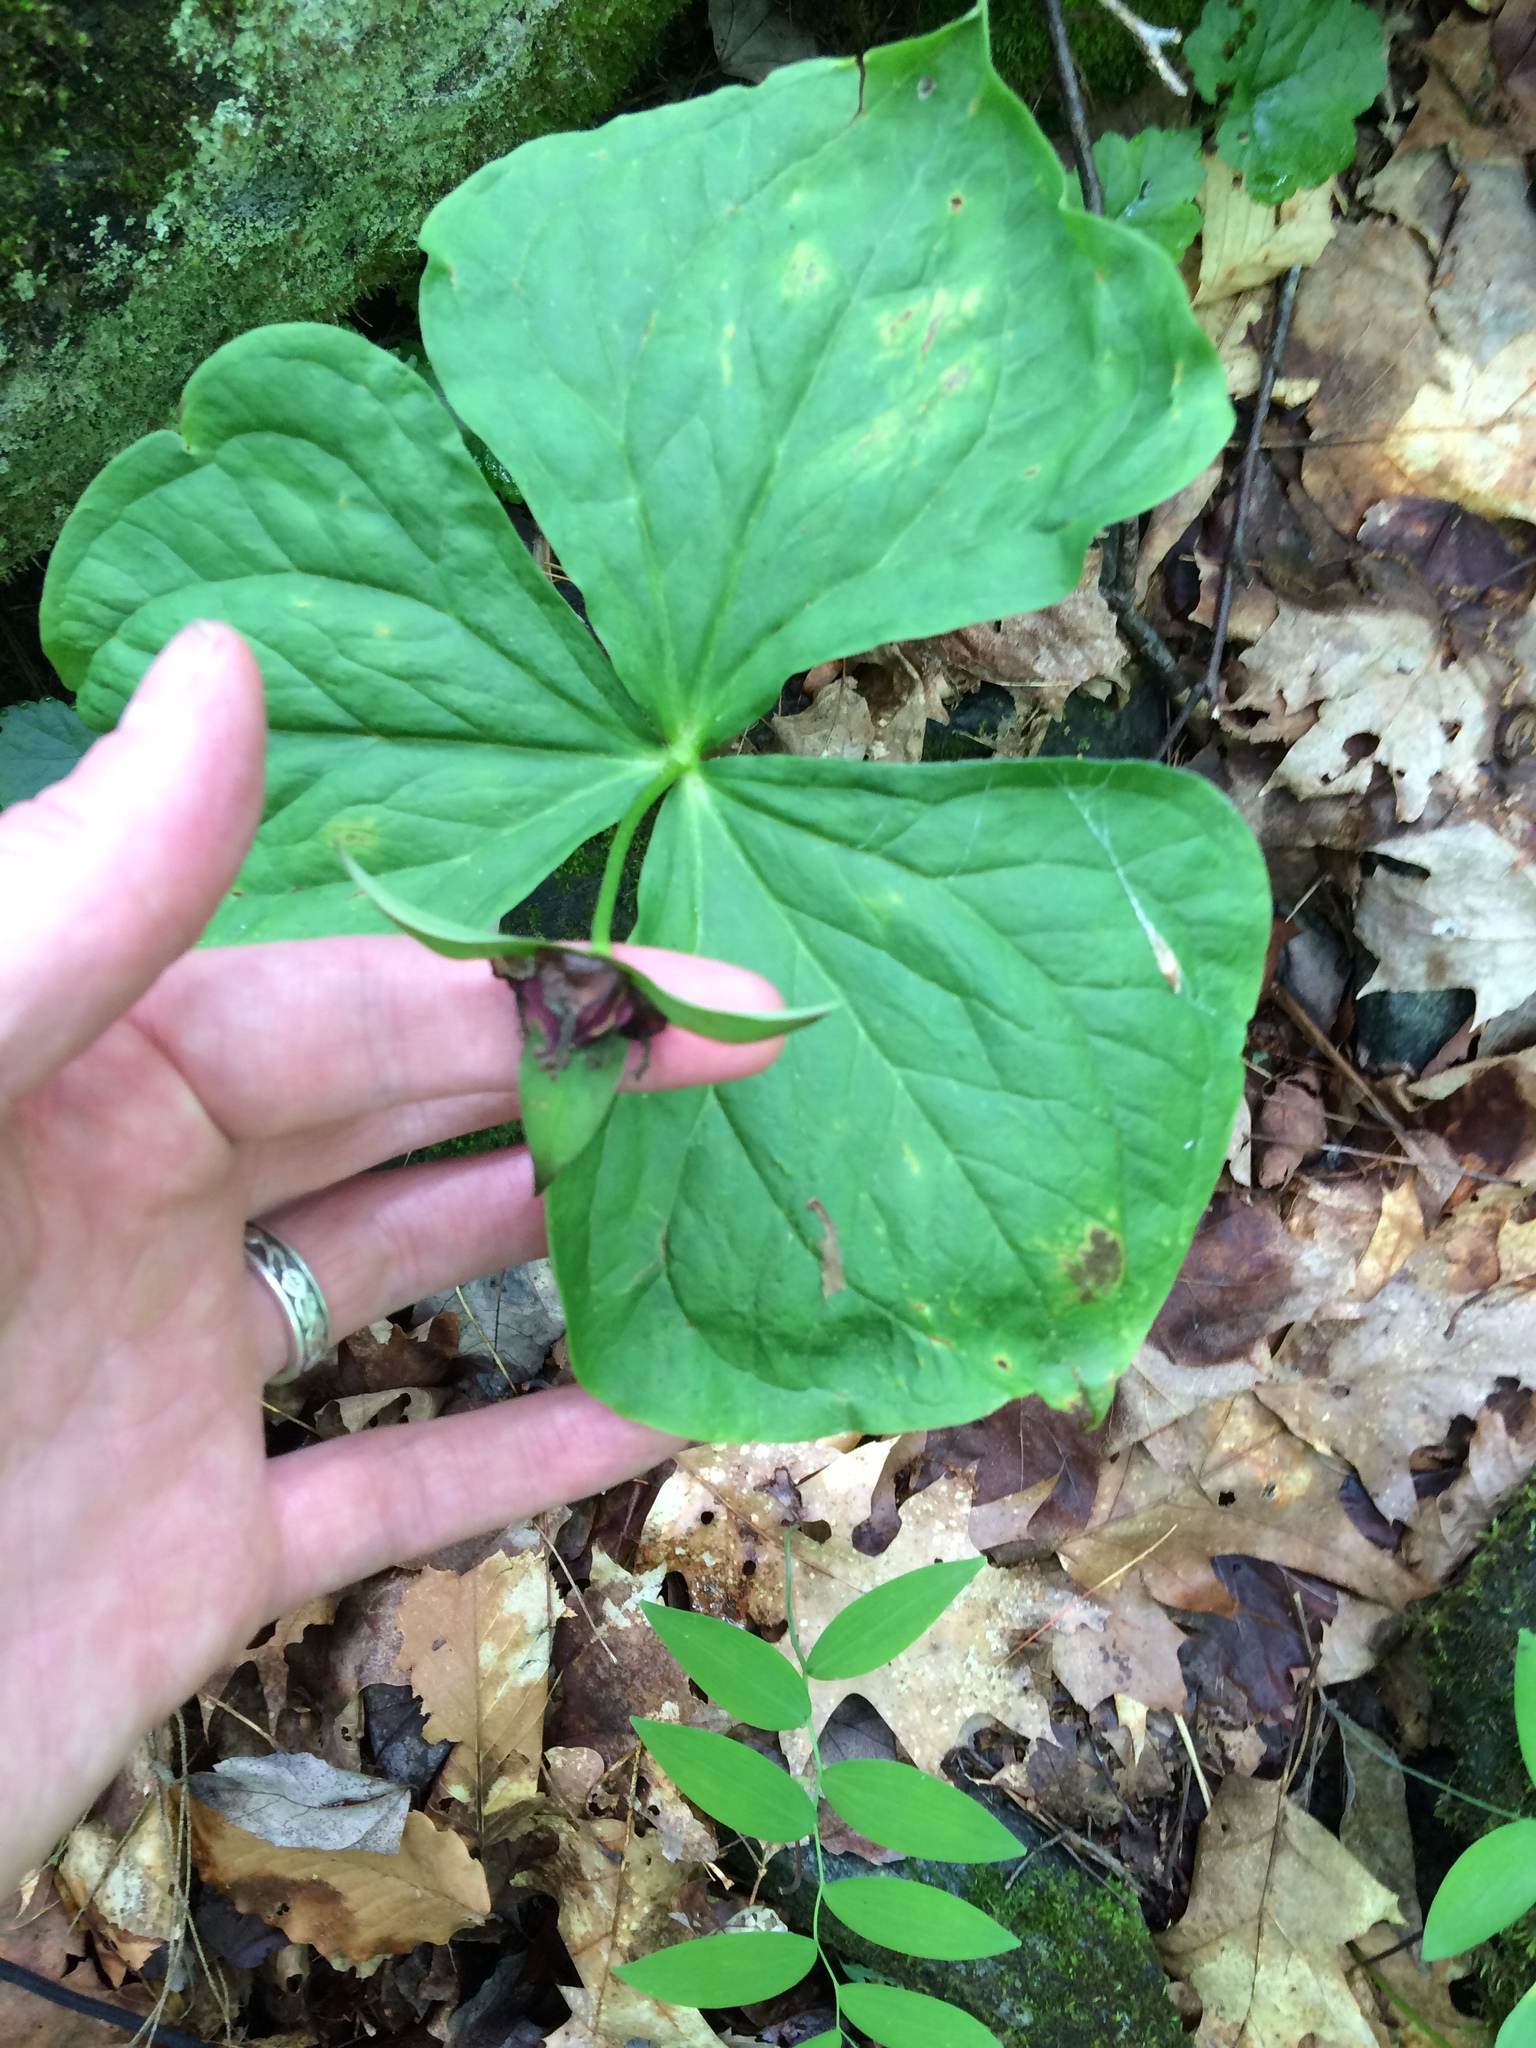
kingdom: Plantae
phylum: Tracheophyta
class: Liliopsida
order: Liliales
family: Melanthiaceae
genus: Trillium
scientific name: Trillium erectum
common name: Purple trillium
